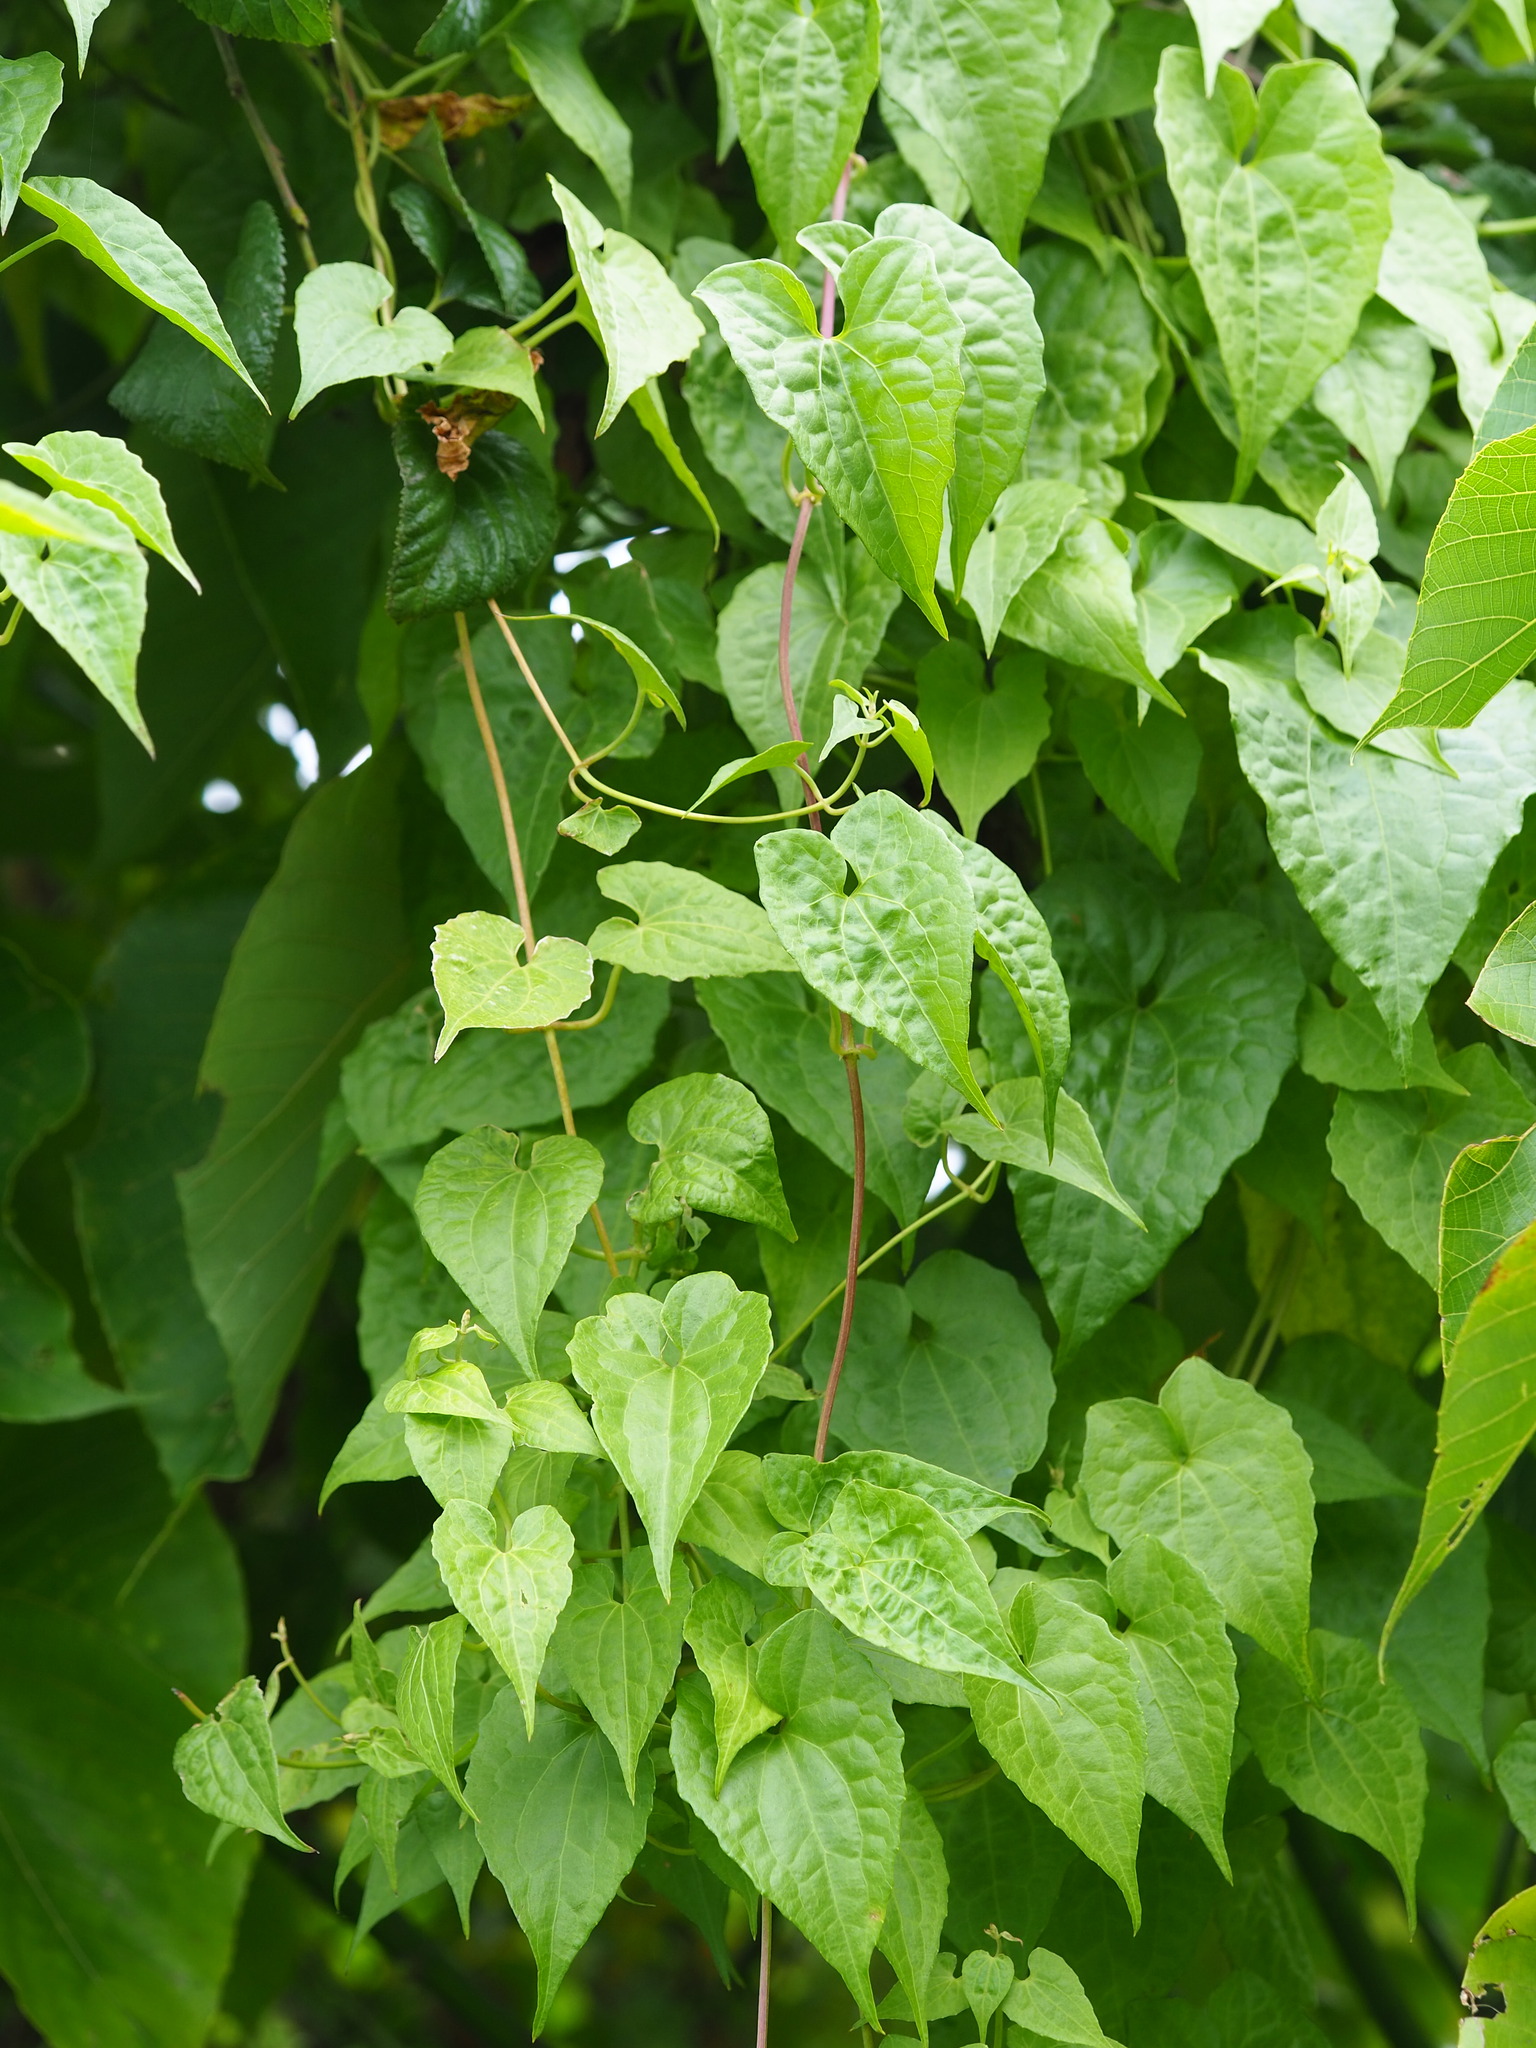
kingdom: Plantae
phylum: Tracheophyta
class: Magnoliopsida
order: Asterales
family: Asteraceae
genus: Mikania
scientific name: Mikania micrantha
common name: Mile-a-minute
